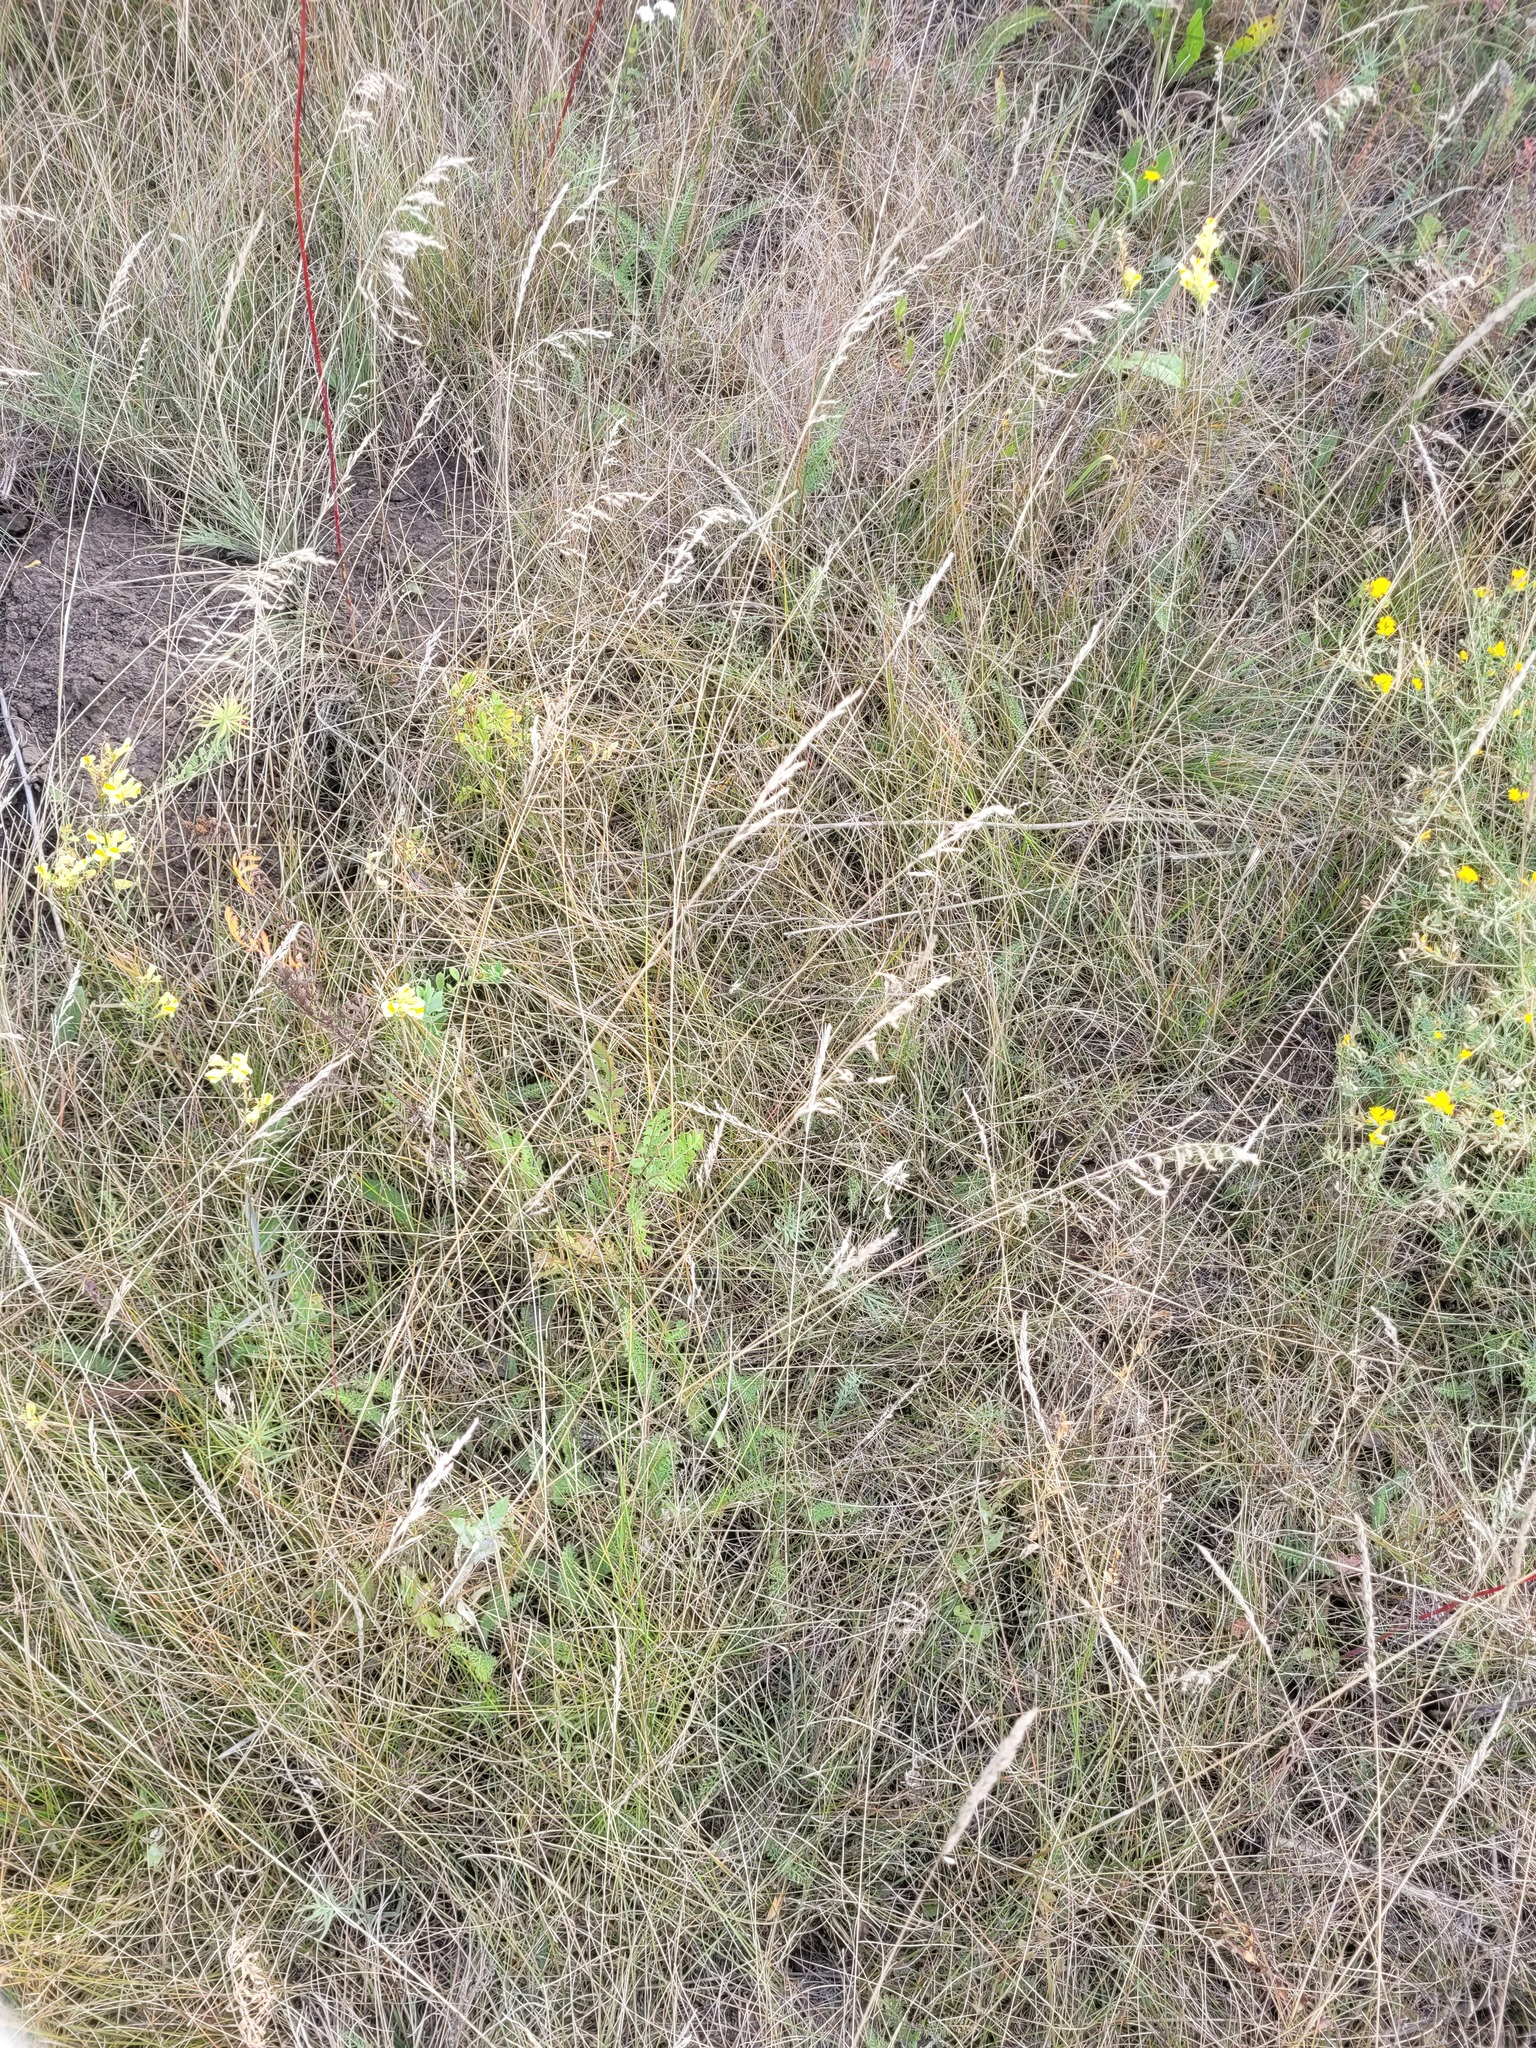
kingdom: Plantae
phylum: Tracheophyta
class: Liliopsida
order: Poales
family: Poaceae
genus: Poa
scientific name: Poa angustifolia
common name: Narrow-leaved meadow-grass
